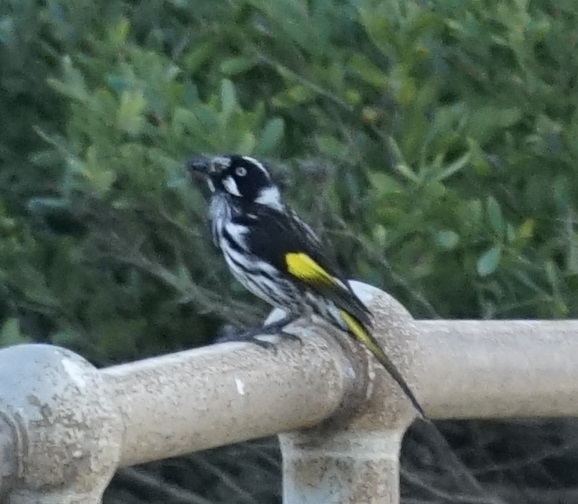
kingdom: Animalia
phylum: Chordata
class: Aves
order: Passeriformes
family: Meliphagidae
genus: Phylidonyris
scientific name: Phylidonyris novaehollandiae
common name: New holland honeyeater
